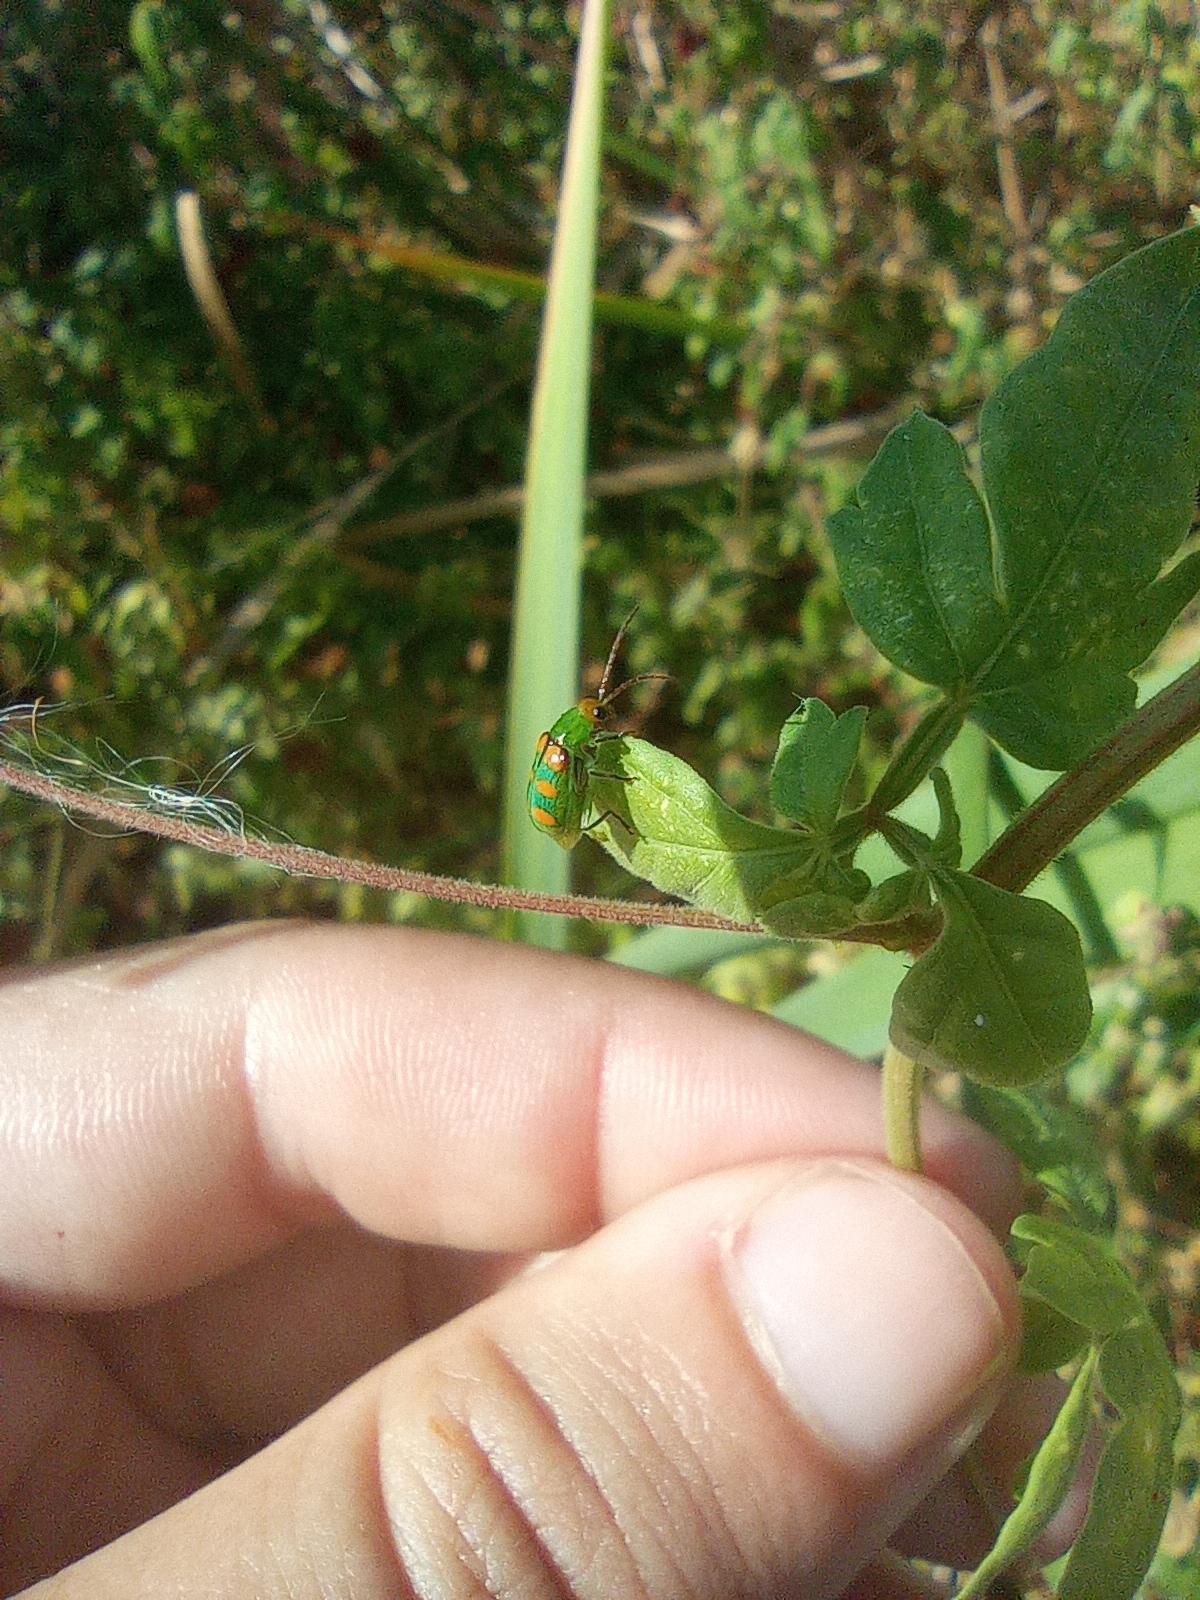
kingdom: Animalia
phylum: Arthropoda
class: Insecta
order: Coleoptera
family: Chrysomelidae
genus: Diabrotica
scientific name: Diabrotica speciosa
